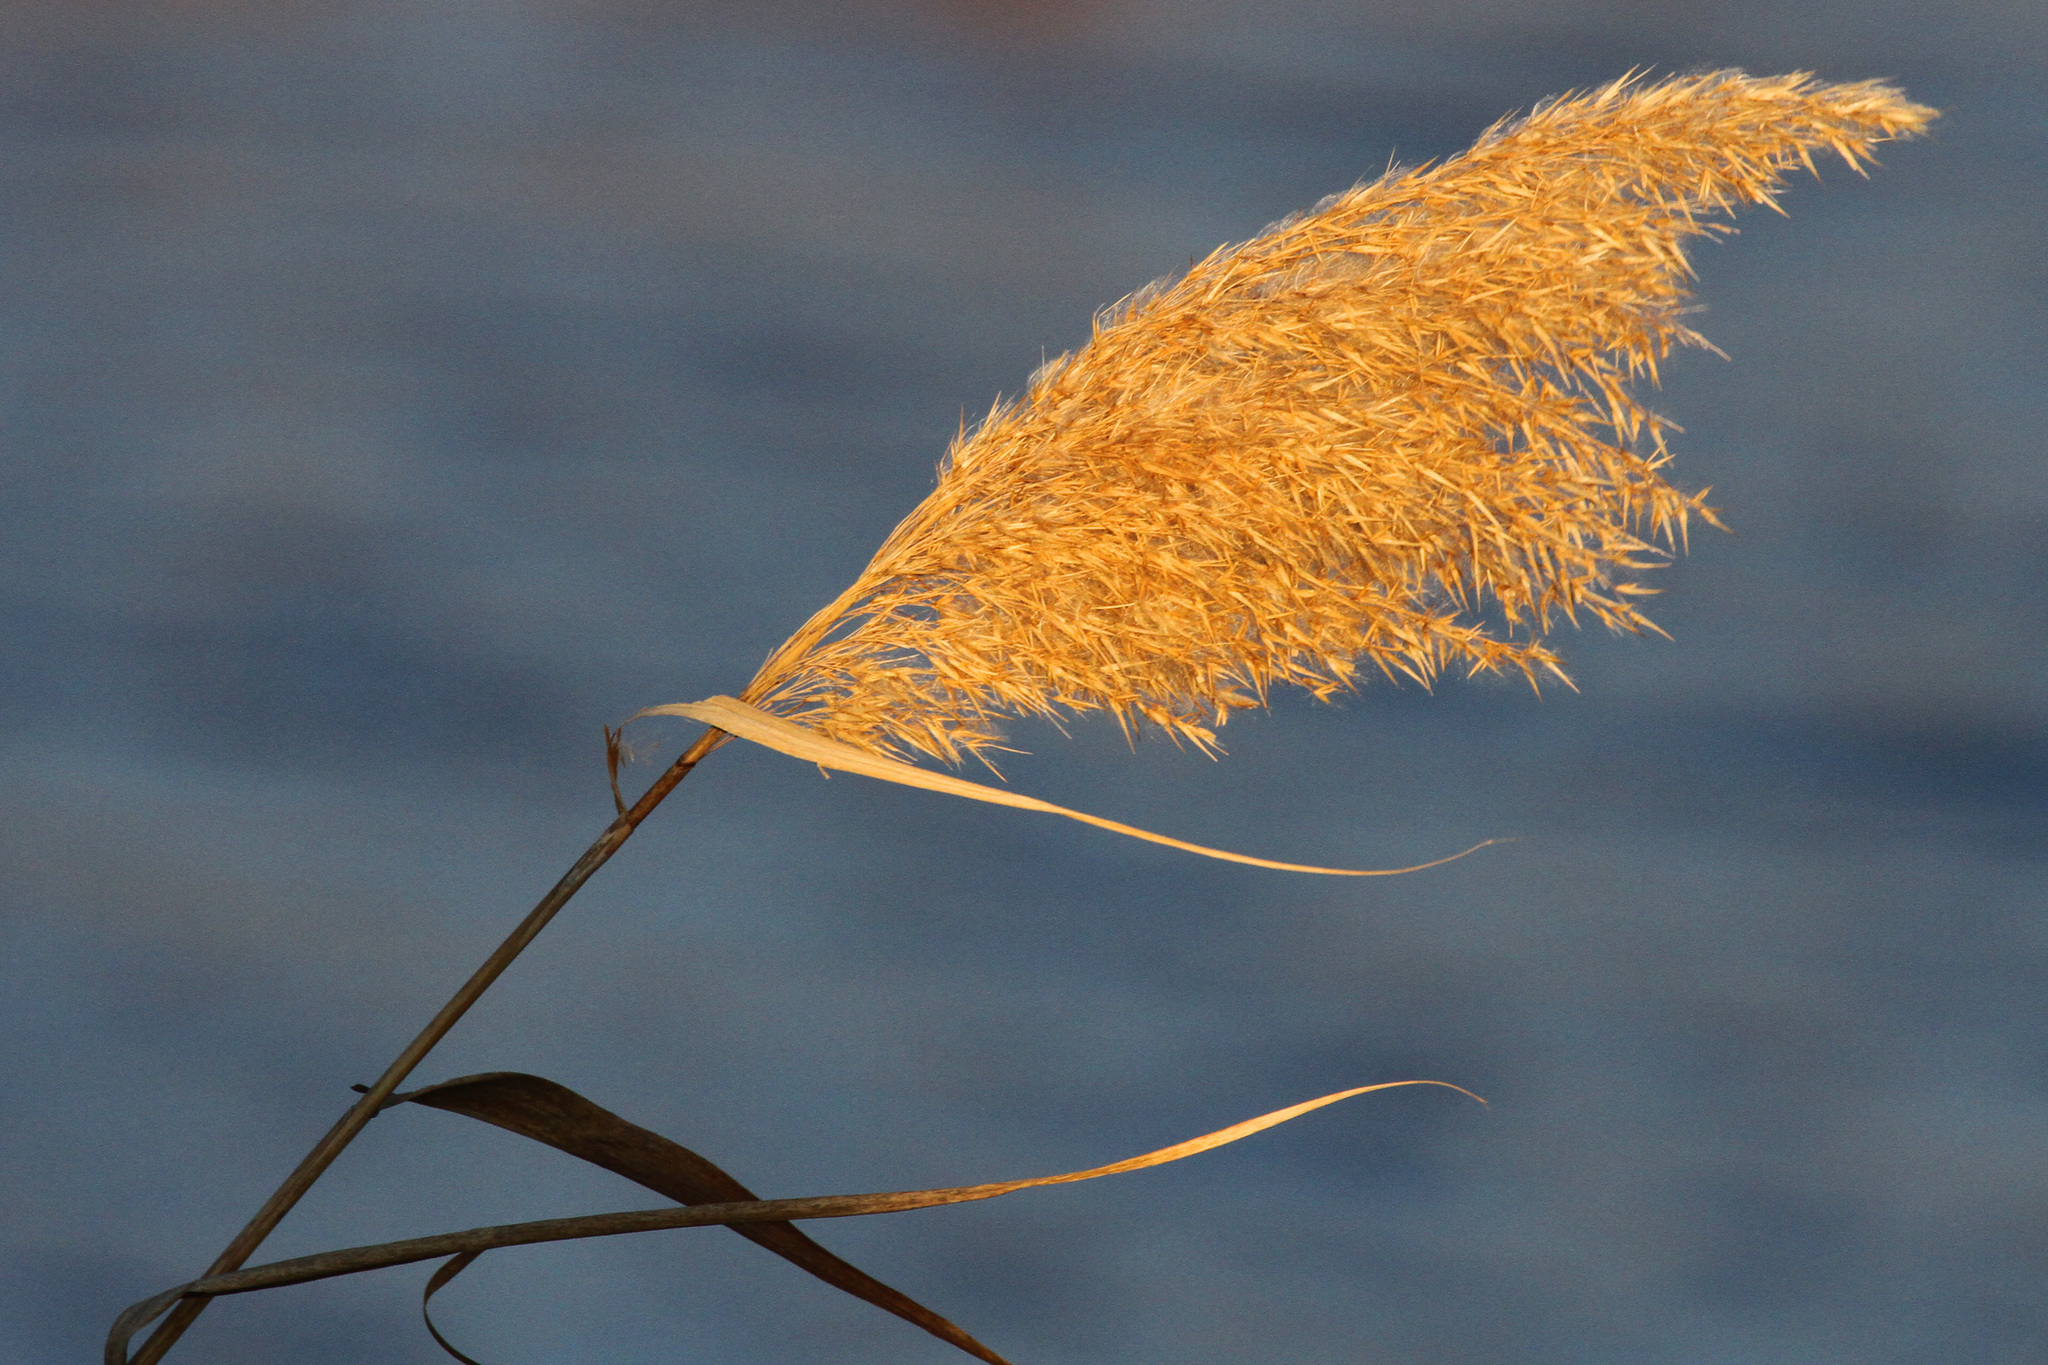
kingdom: Plantae
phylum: Tracheophyta
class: Liliopsida
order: Poales
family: Poaceae
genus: Phragmites
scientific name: Phragmites australis
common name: Common reed
